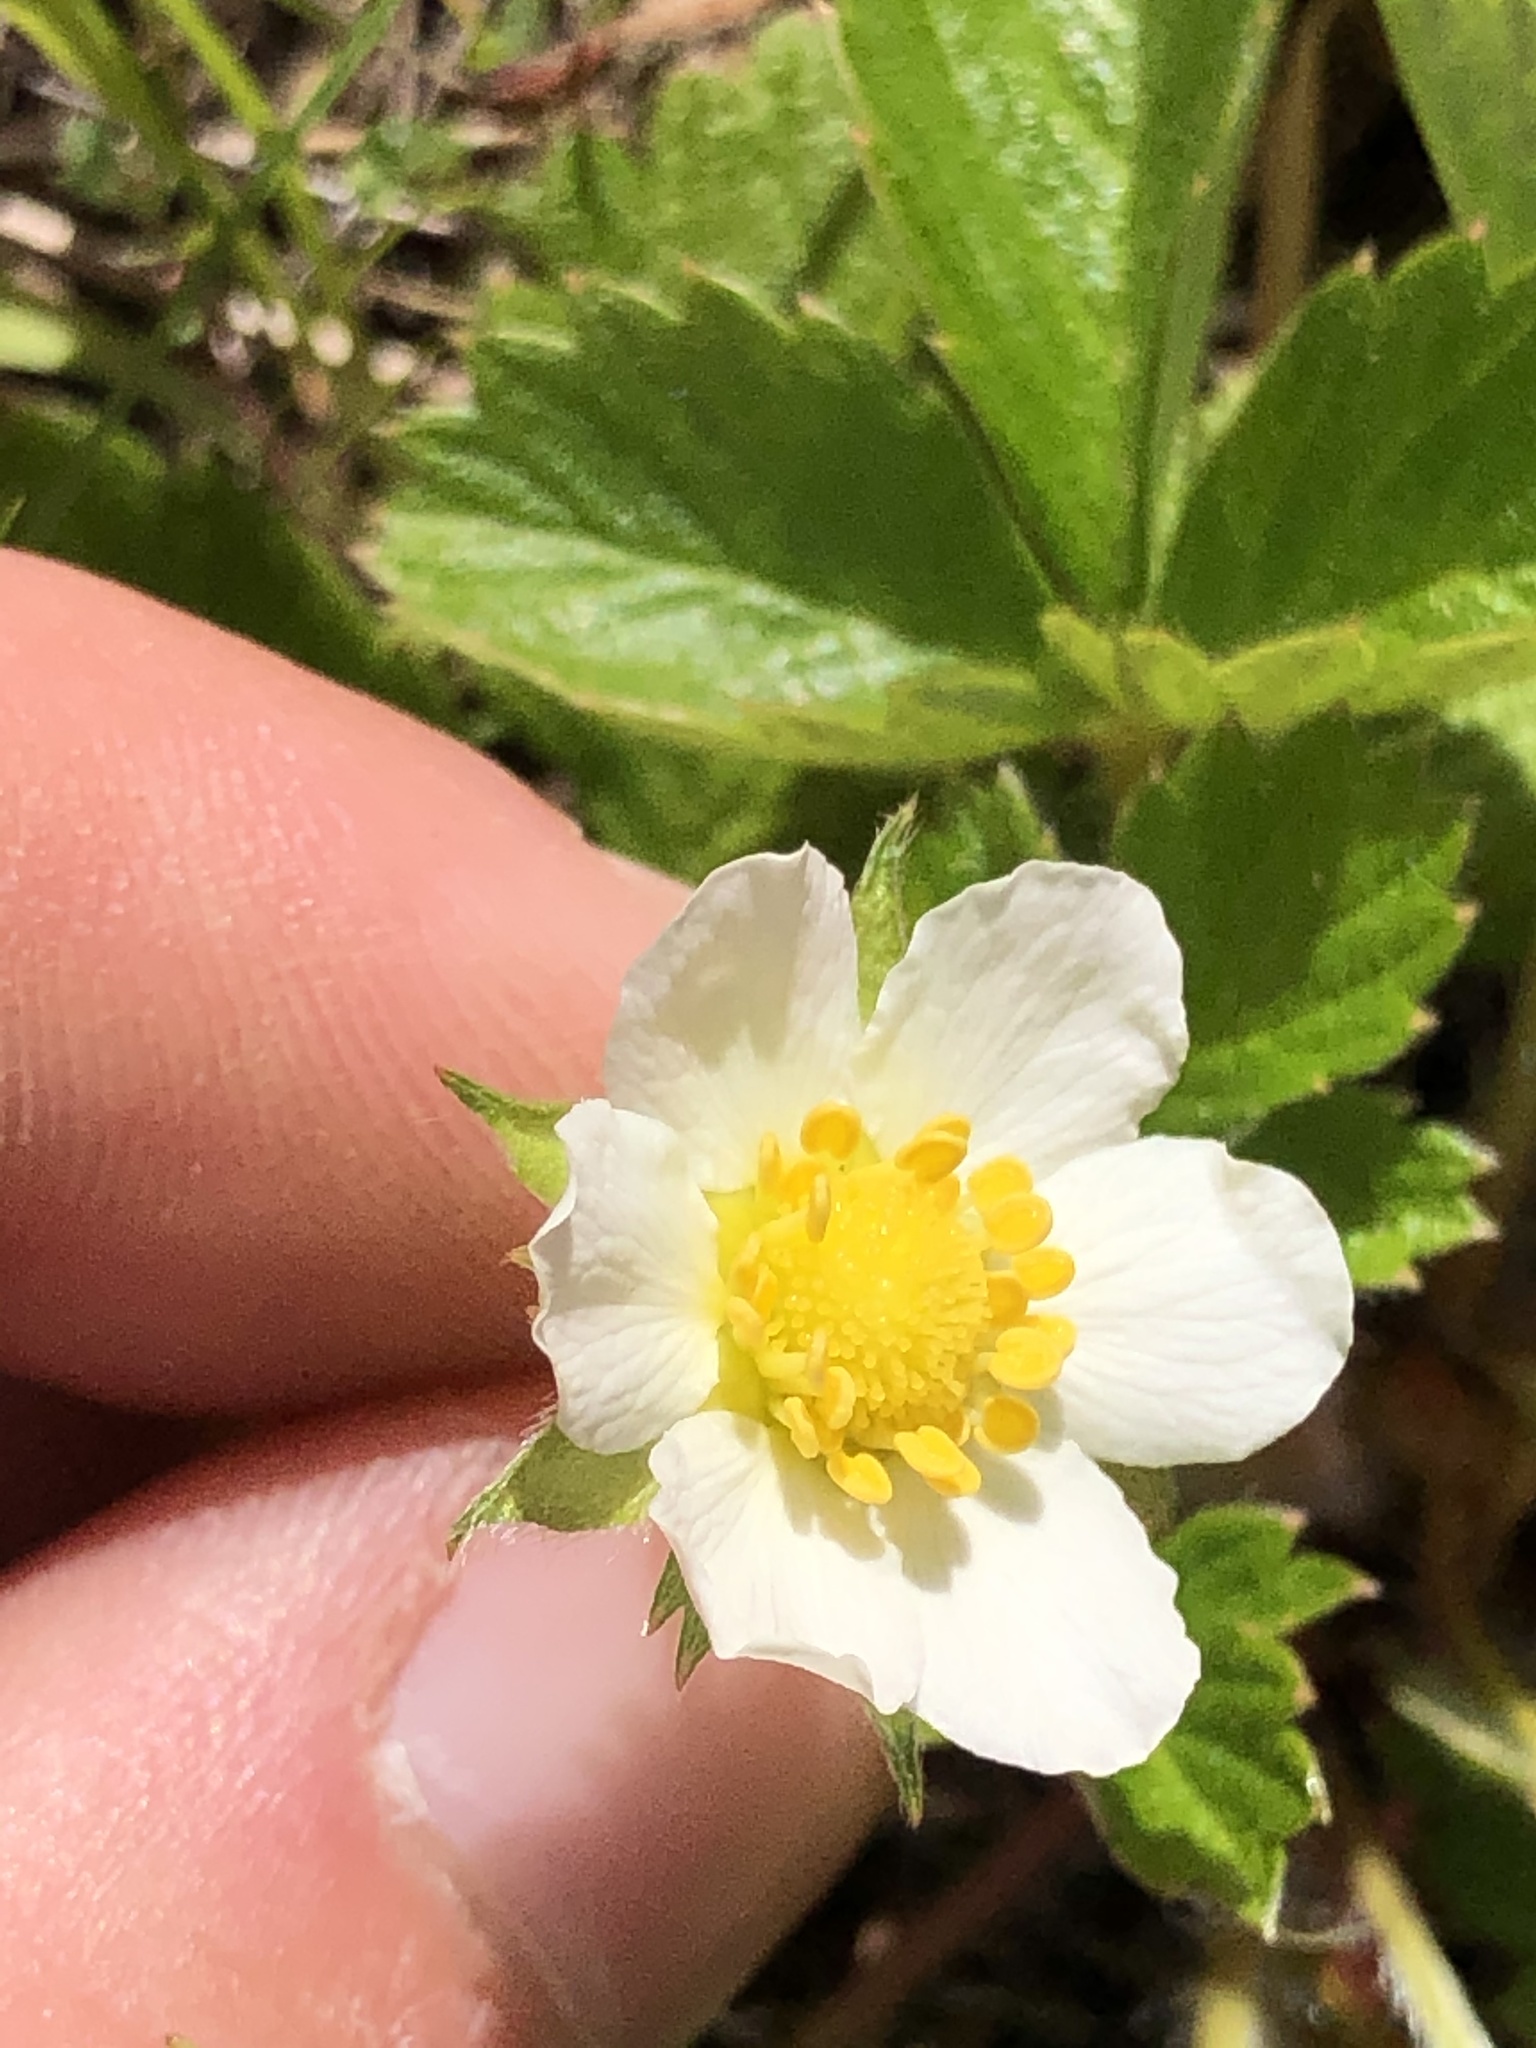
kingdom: Plantae
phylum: Tracheophyta
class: Magnoliopsida
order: Rosales
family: Rosaceae
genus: Fragaria
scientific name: Fragaria vesca
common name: Wild strawberry
